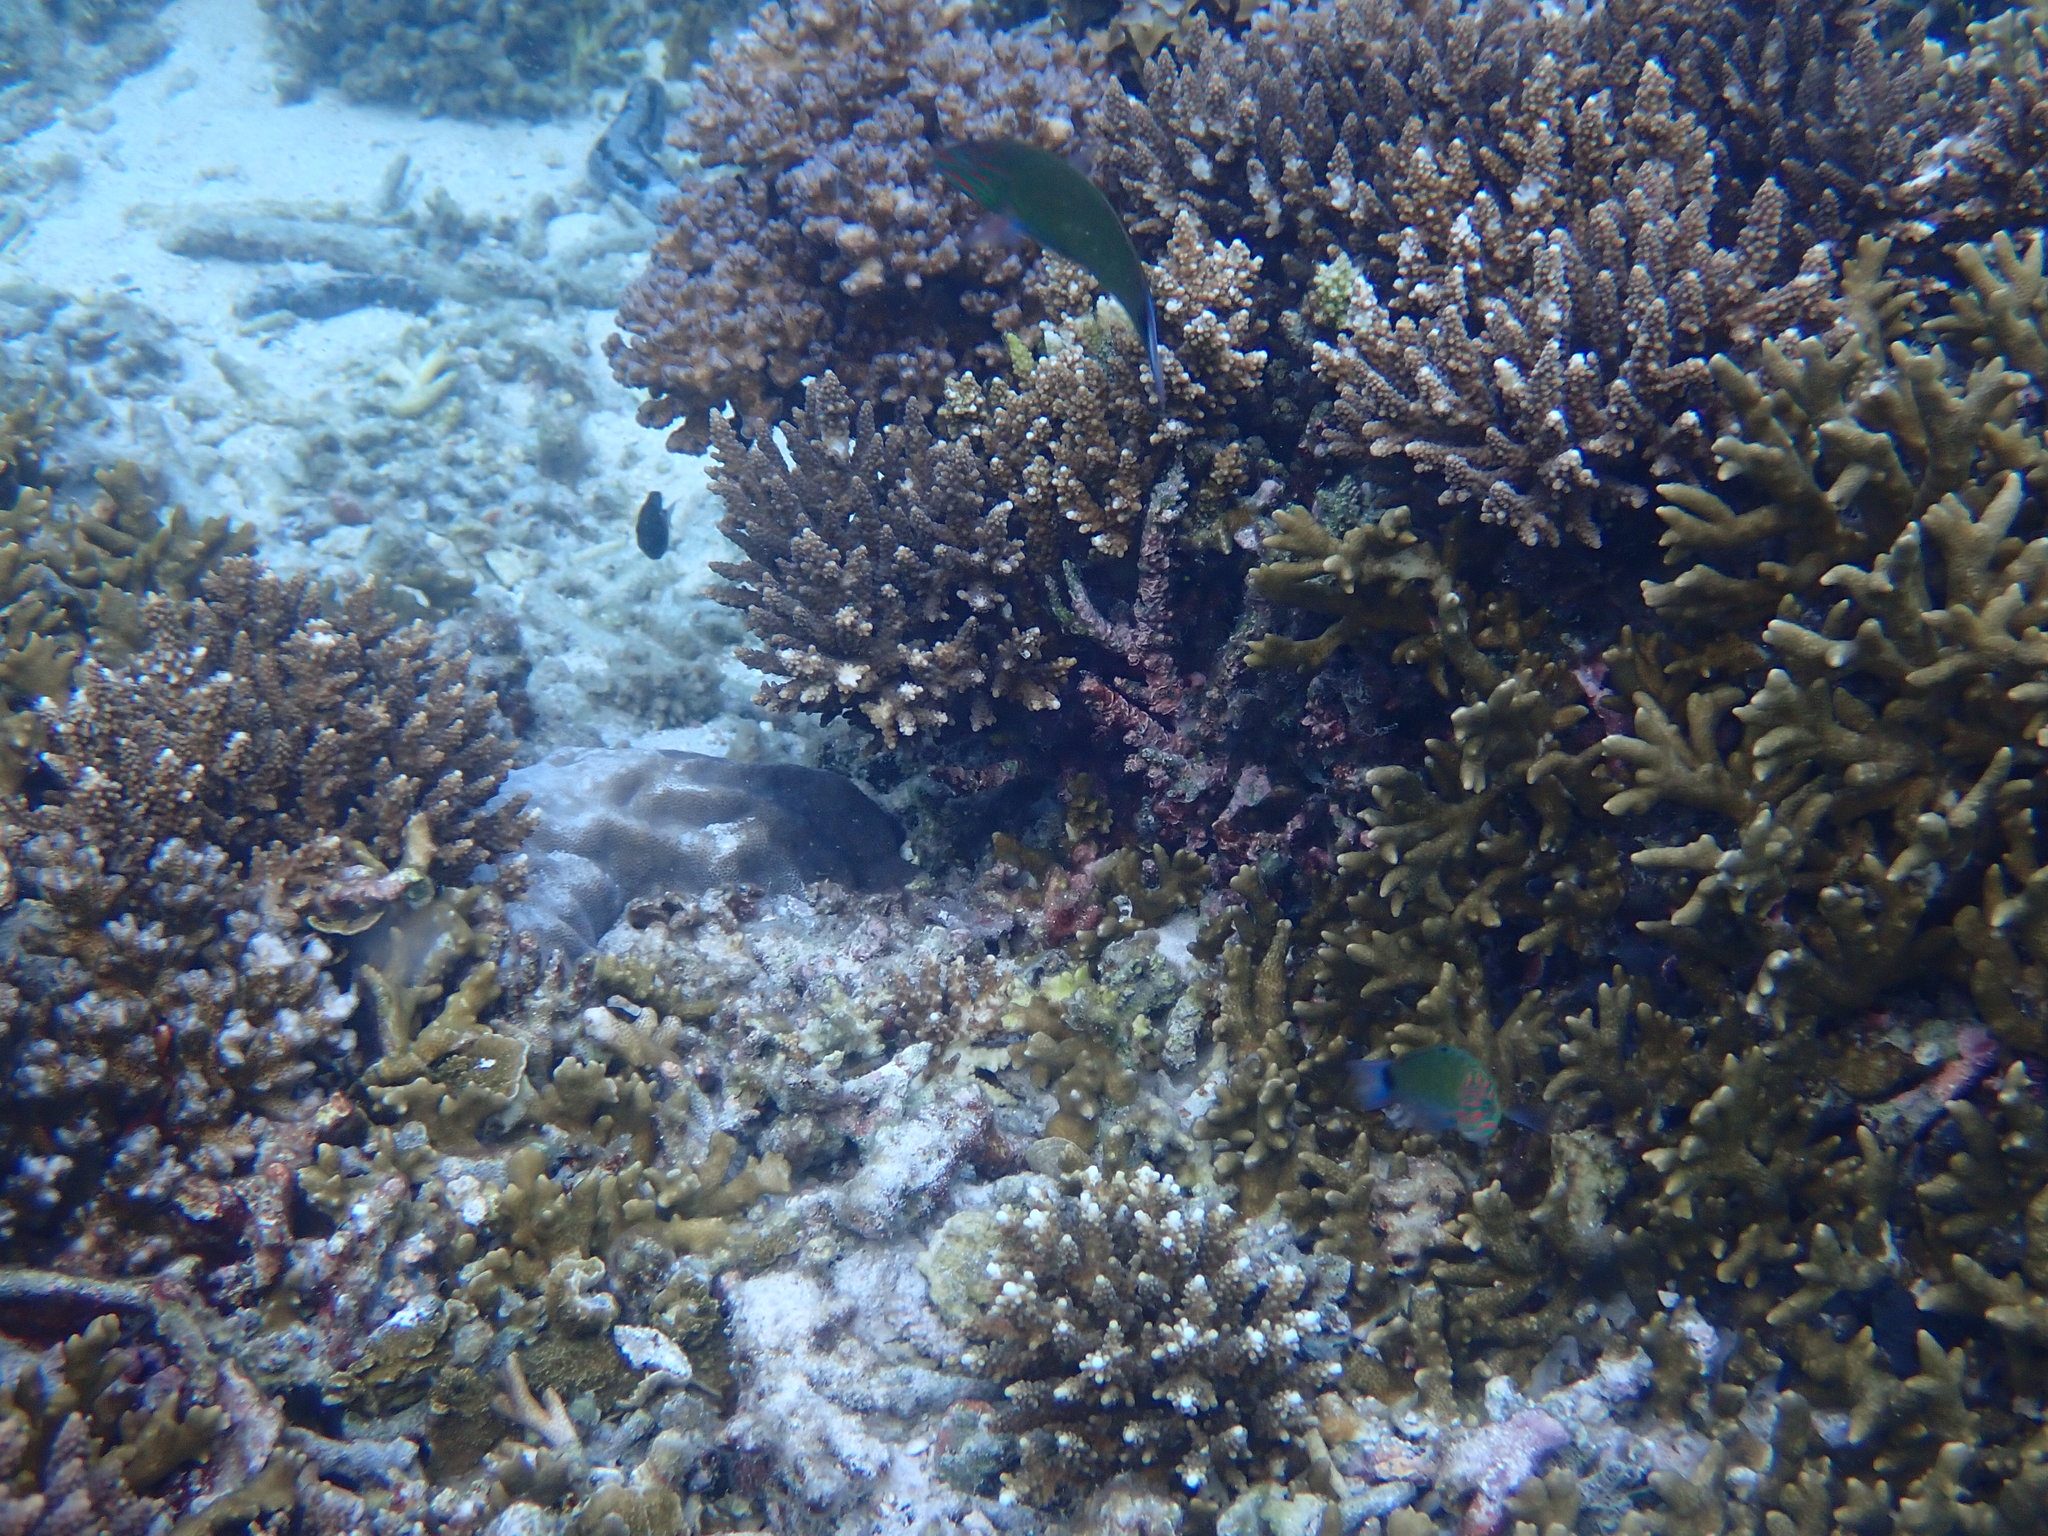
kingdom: Animalia
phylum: Chordata
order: Perciformes
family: Labridae
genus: Thalassoma
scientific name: Thalassoma lunare
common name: Blue wrasse
